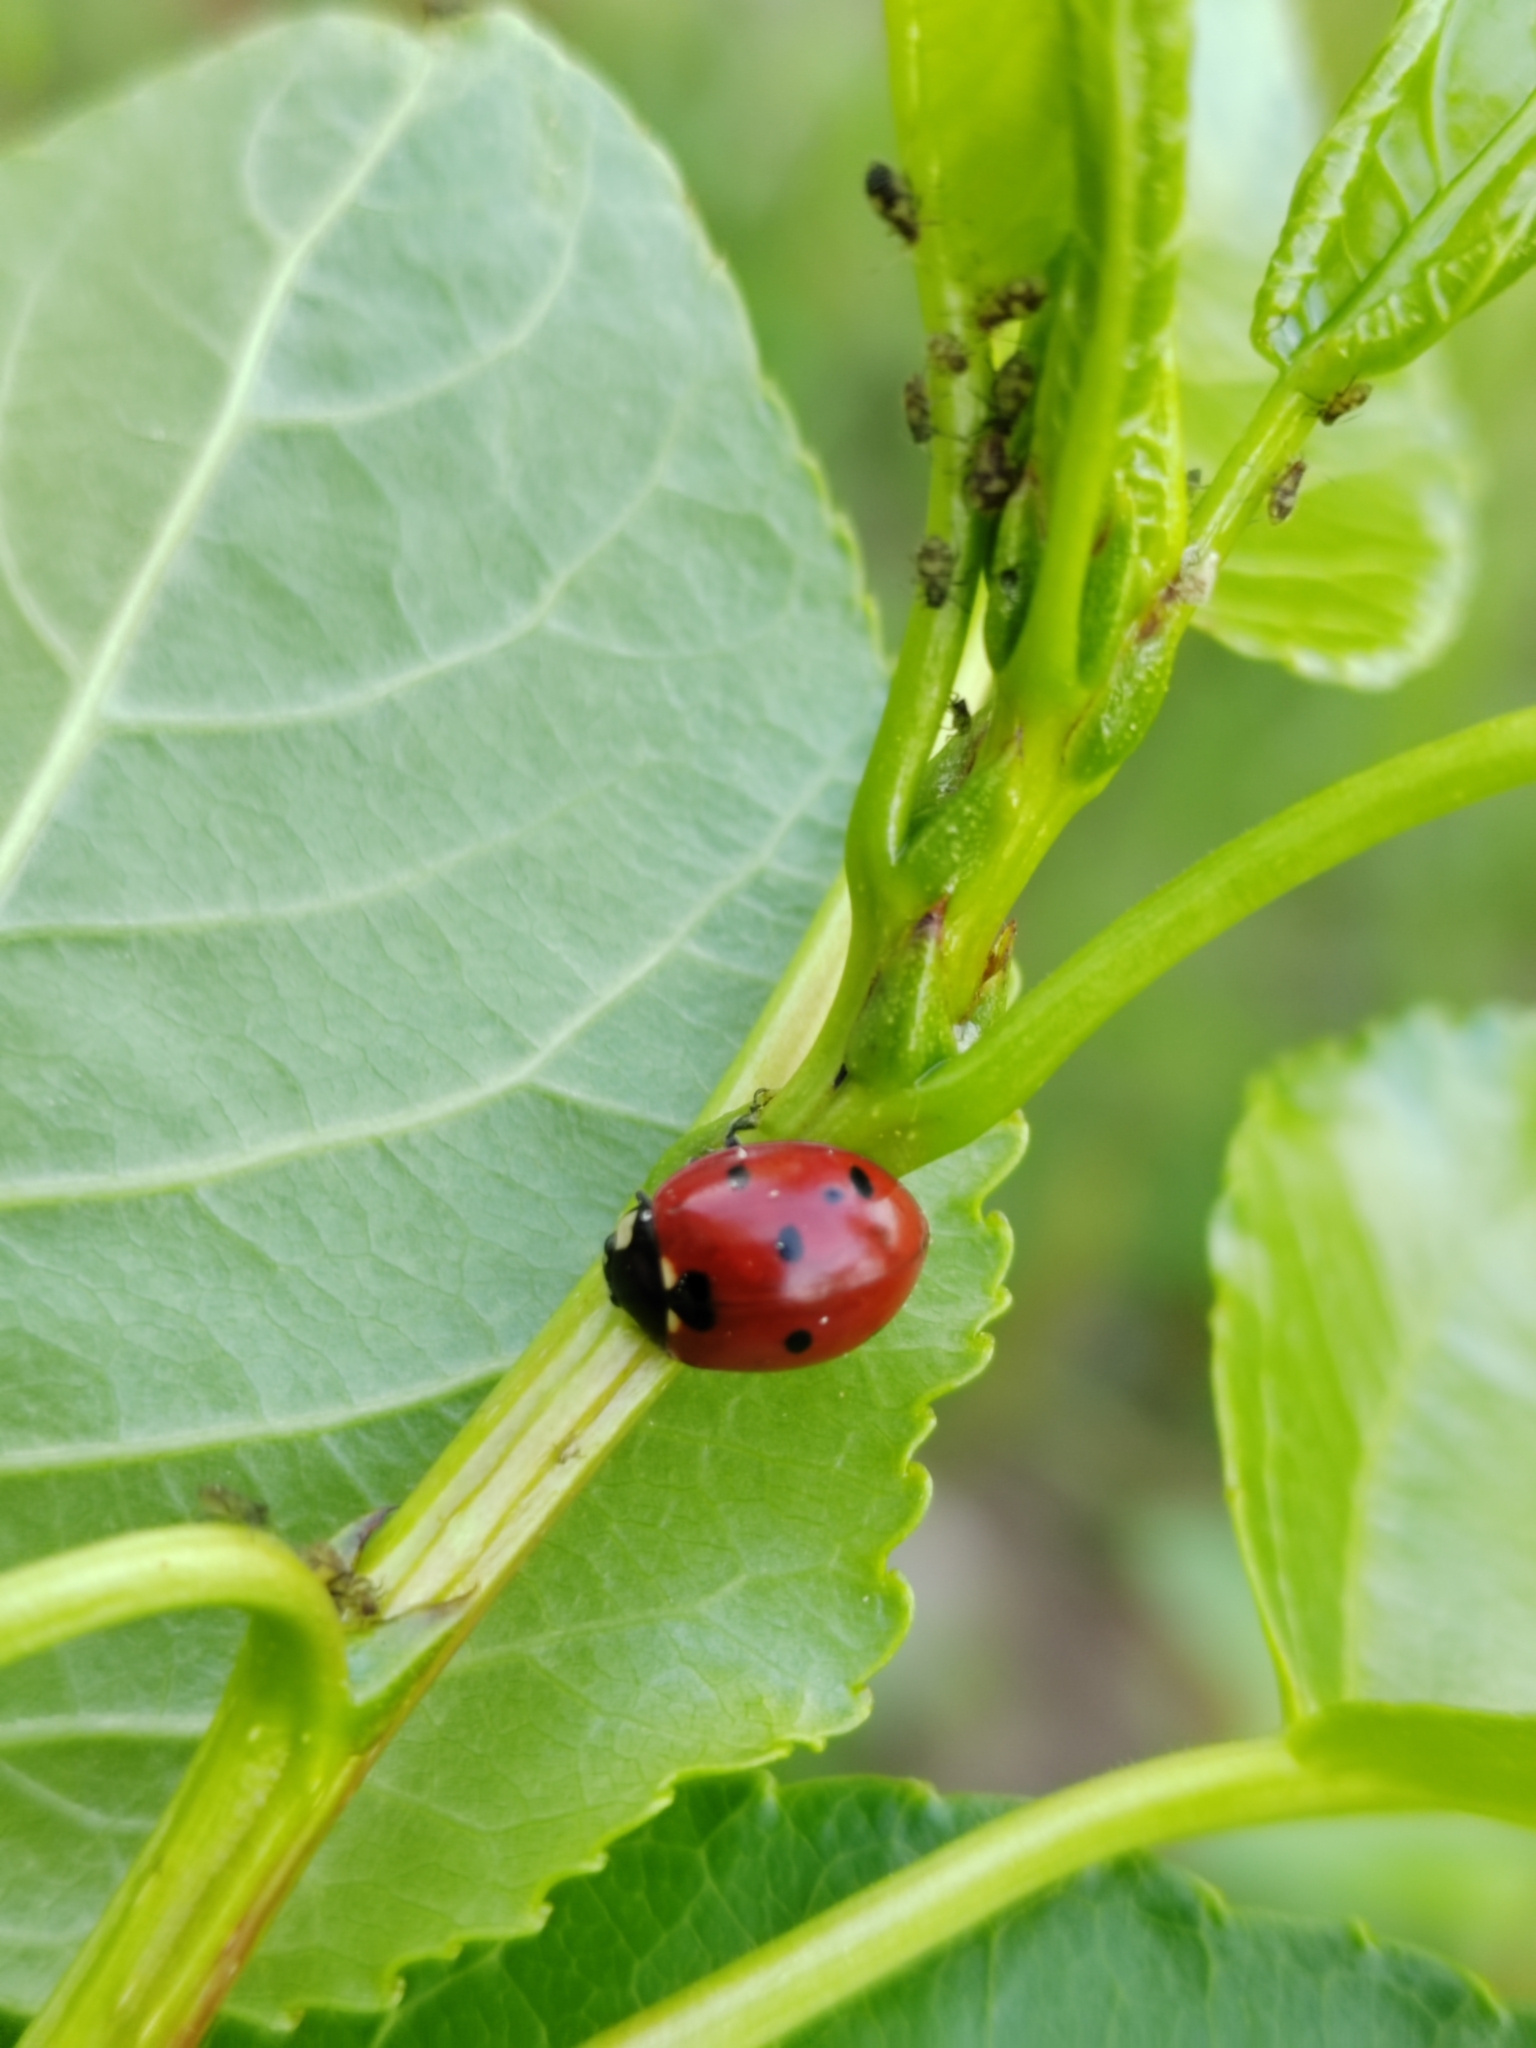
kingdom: Animalia
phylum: Arthropoda
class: Insecta
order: Coleoptera
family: Coccinellidae
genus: Coccinella
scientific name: Coccinella septempunctata
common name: Sevenspotted lady beetle
